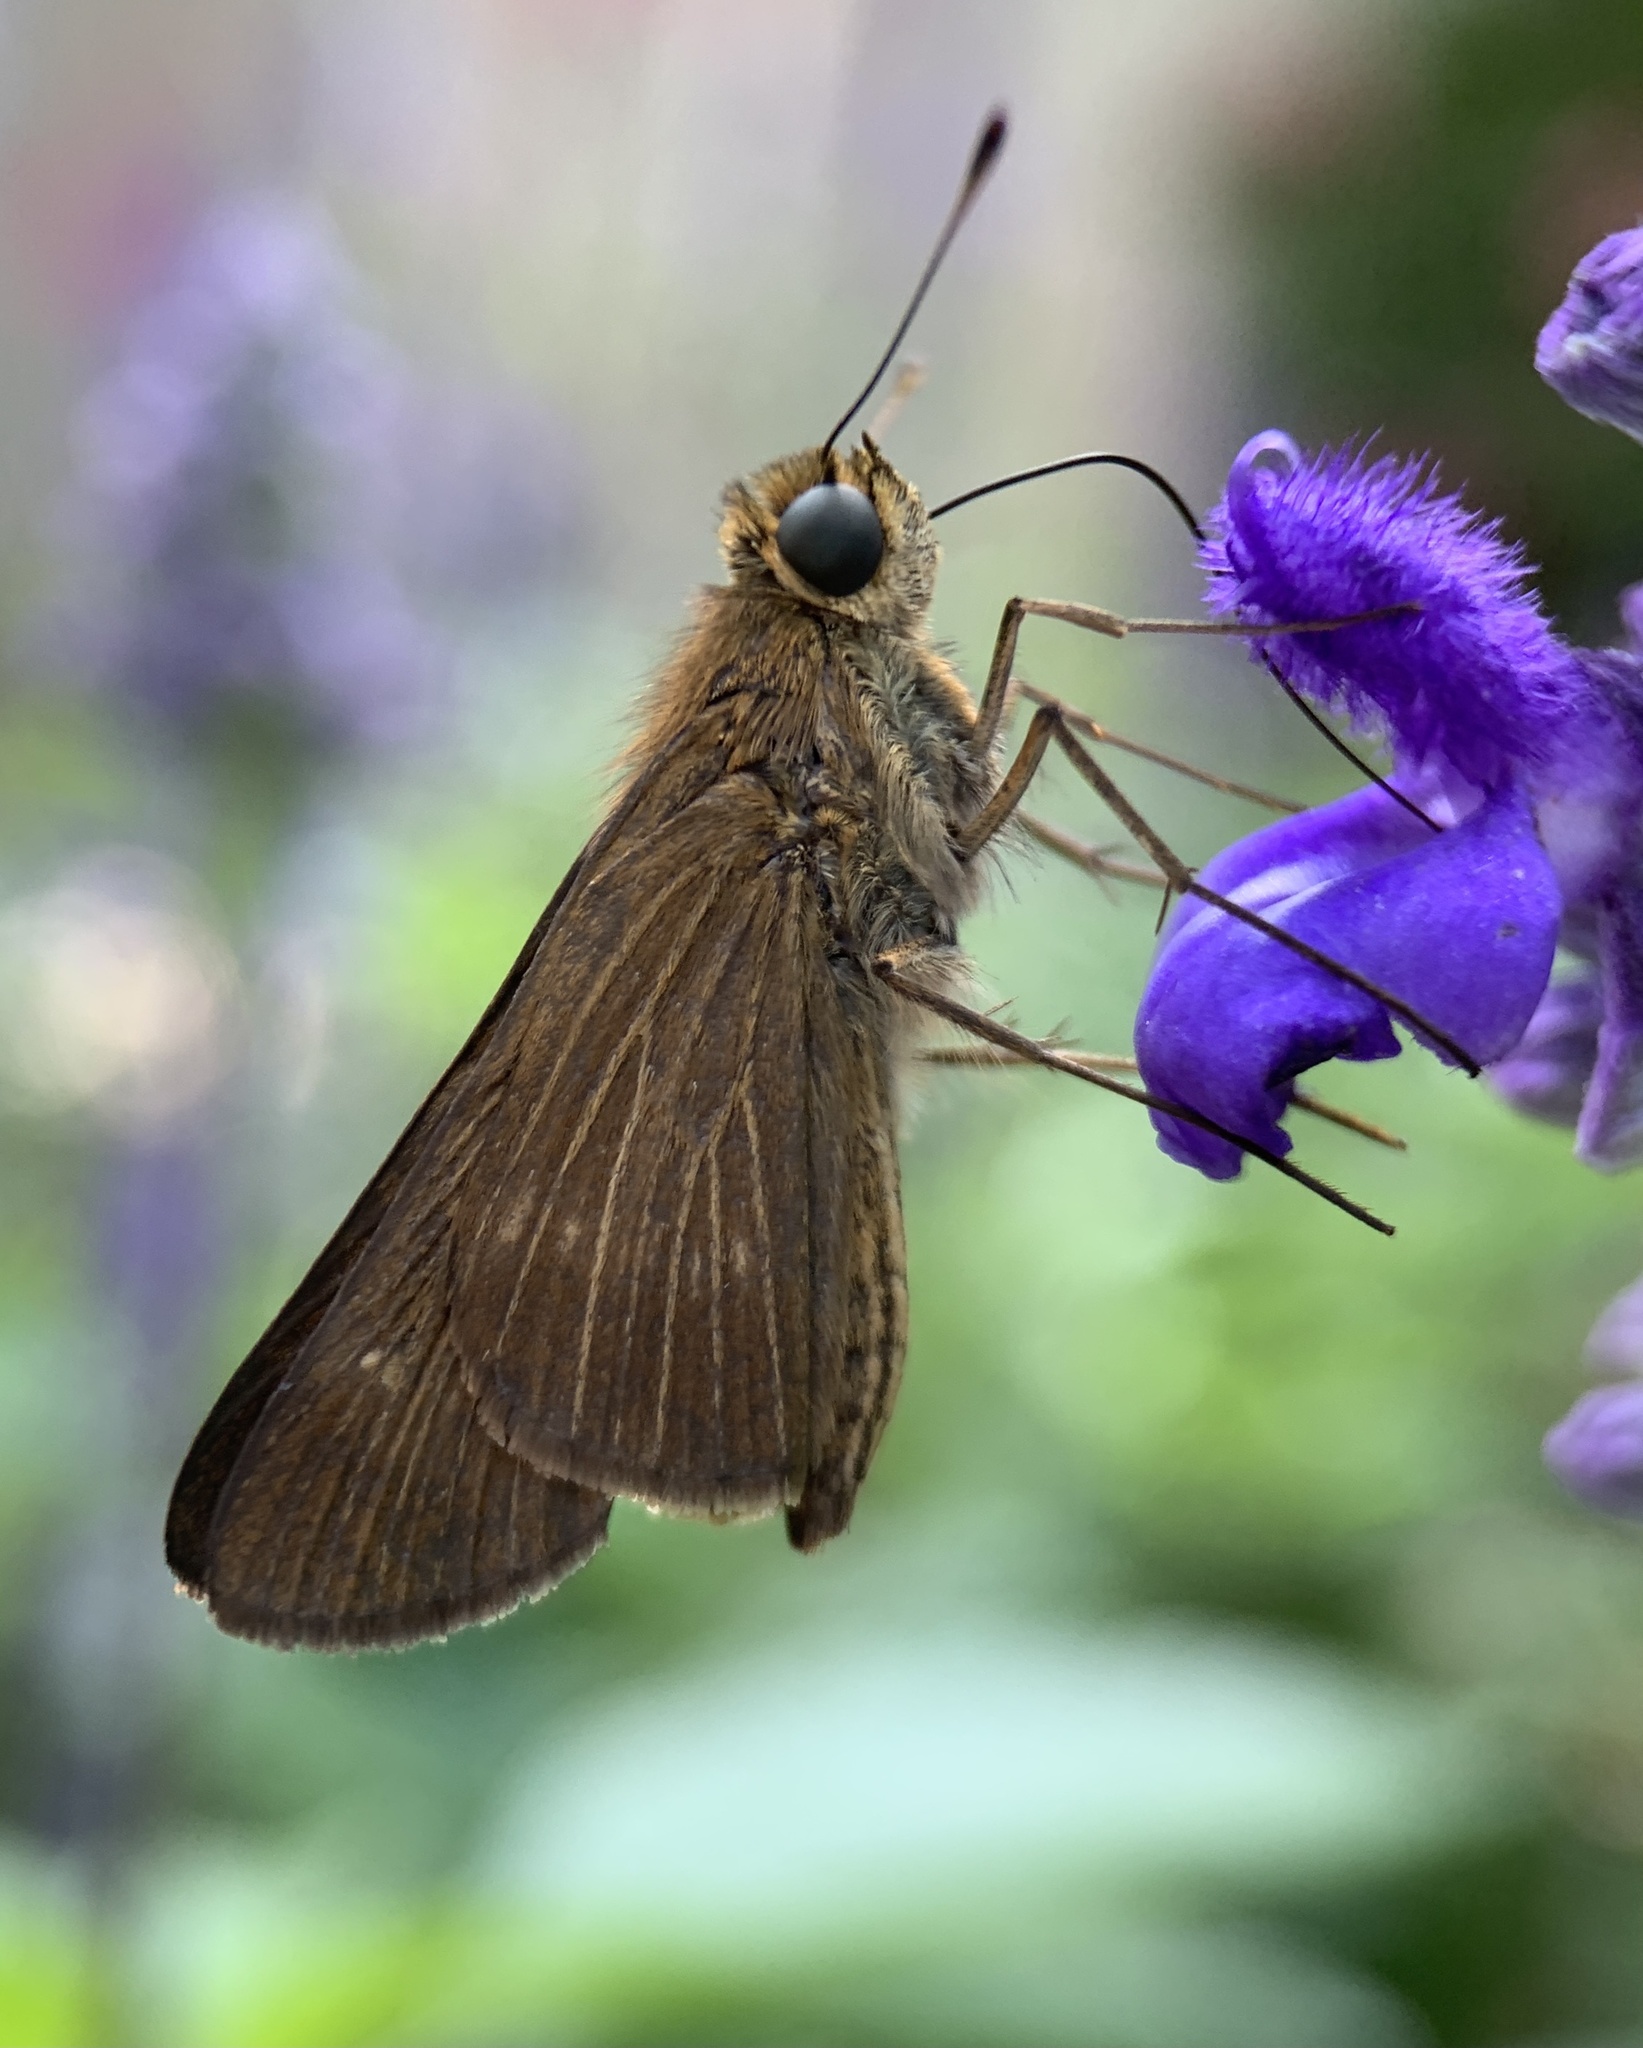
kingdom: Animalia
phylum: Arthropoda
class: Insecta
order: Lepidoptera
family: Hesperiidae
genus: Panoquina
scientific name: Panoquina ocola
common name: Ocola skipper
